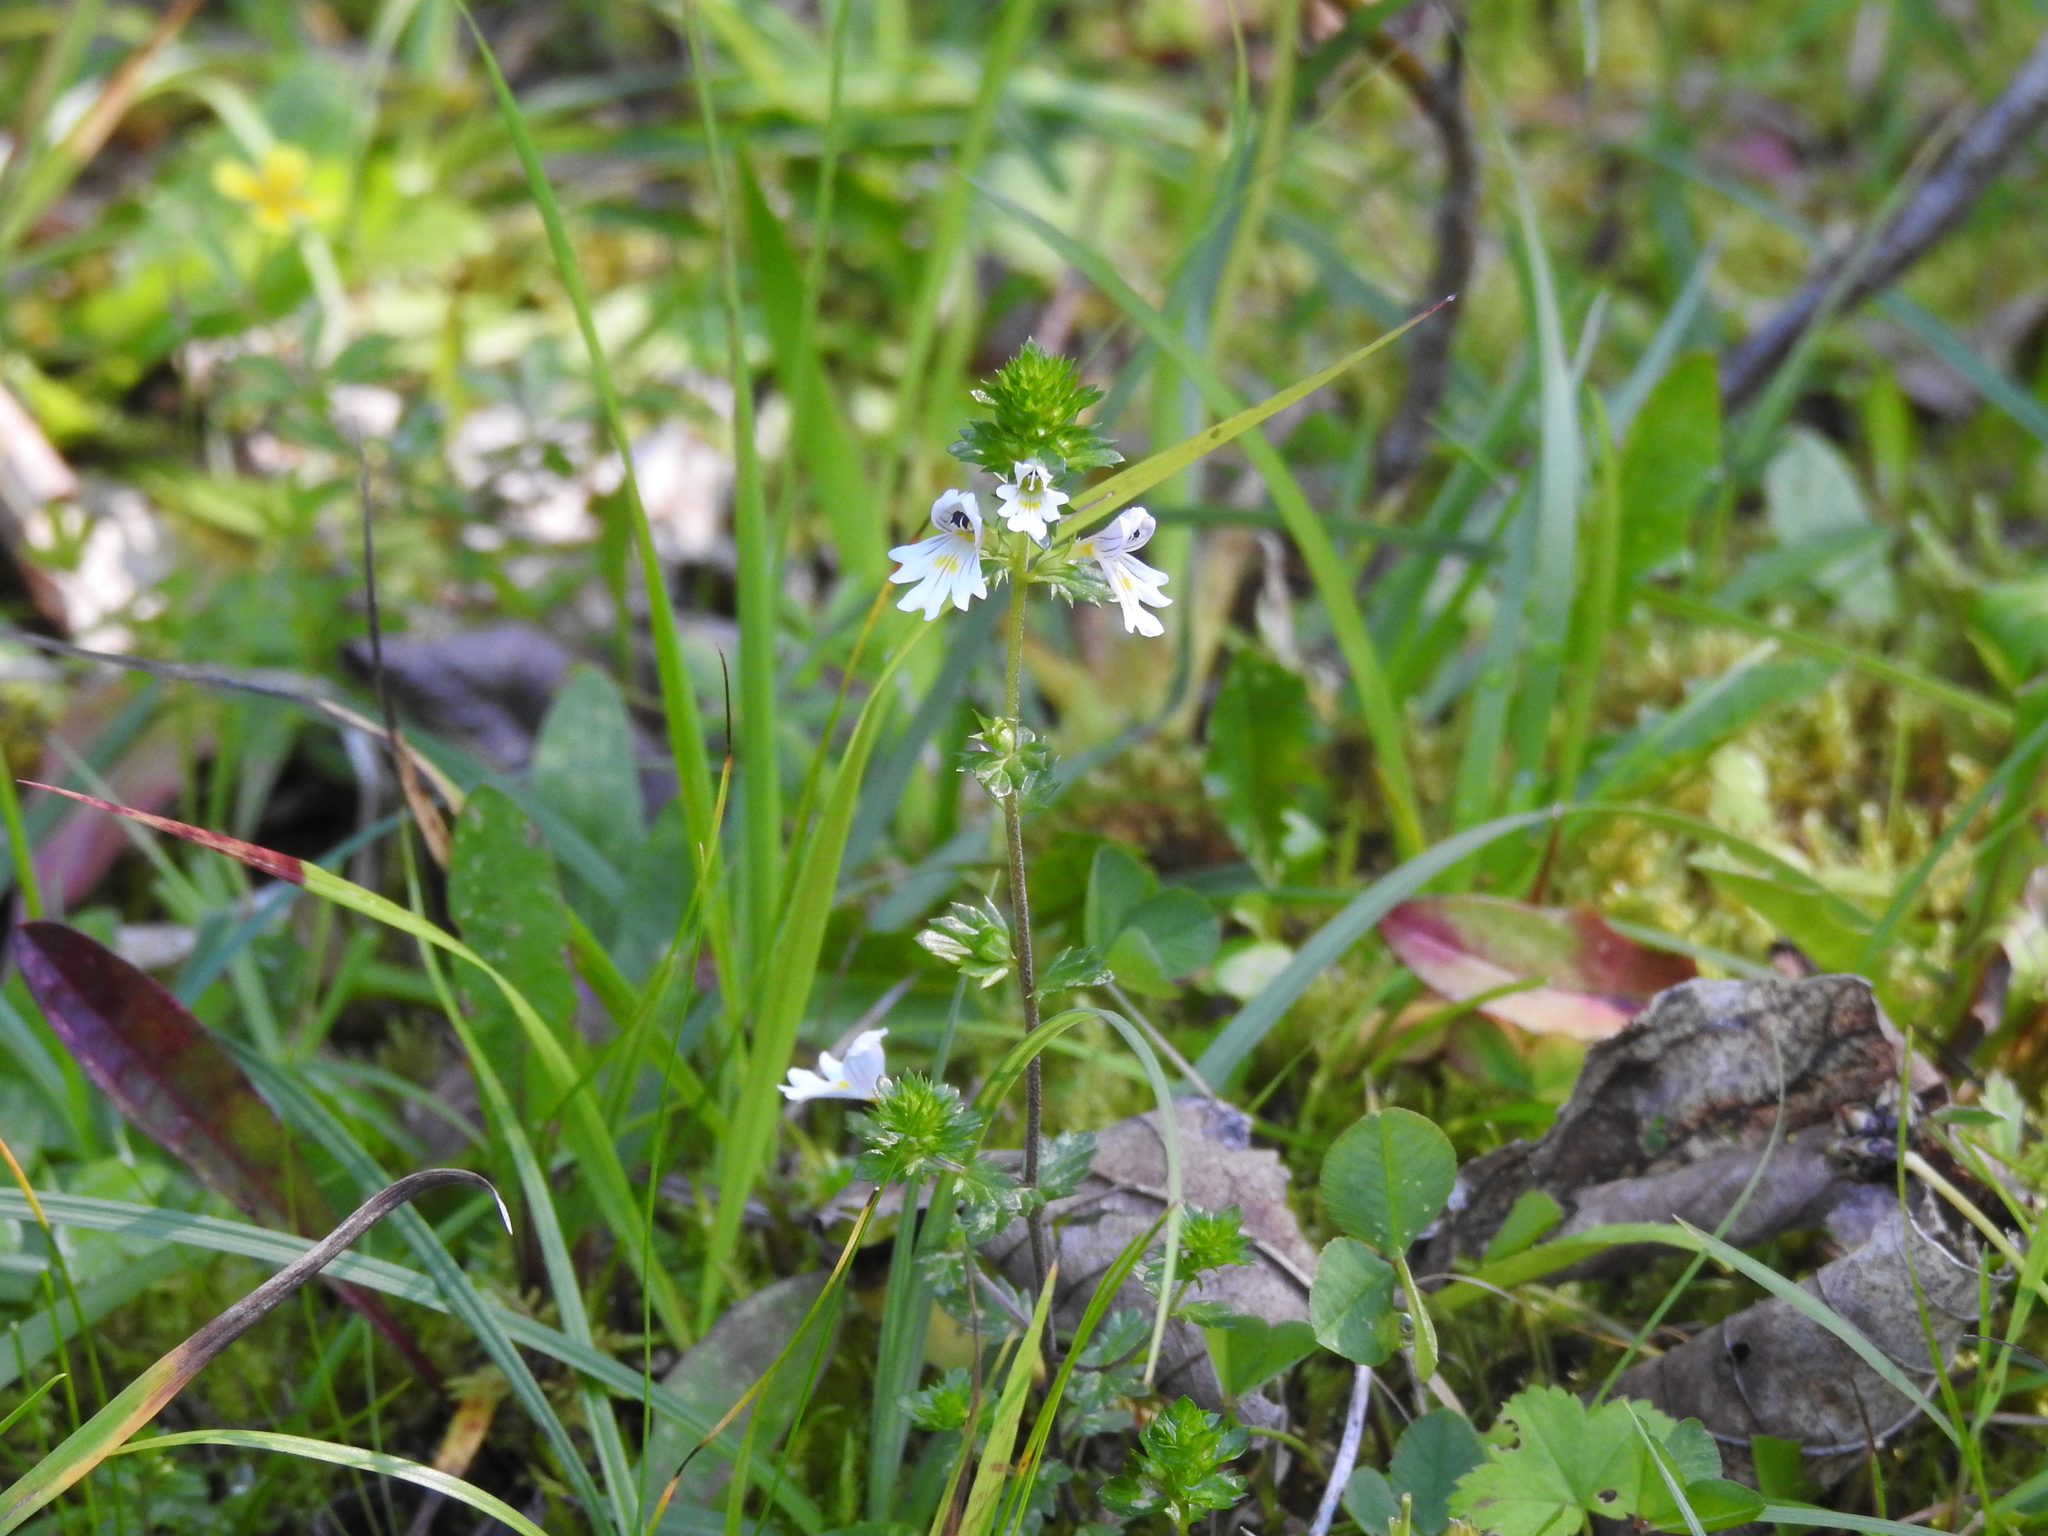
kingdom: Plantae
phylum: Tracheophyta
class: Magnoliopsida
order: Lamiales
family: Orobanchaceae
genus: Euphrasia
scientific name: Euphrasia officinalis
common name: Eyebright
